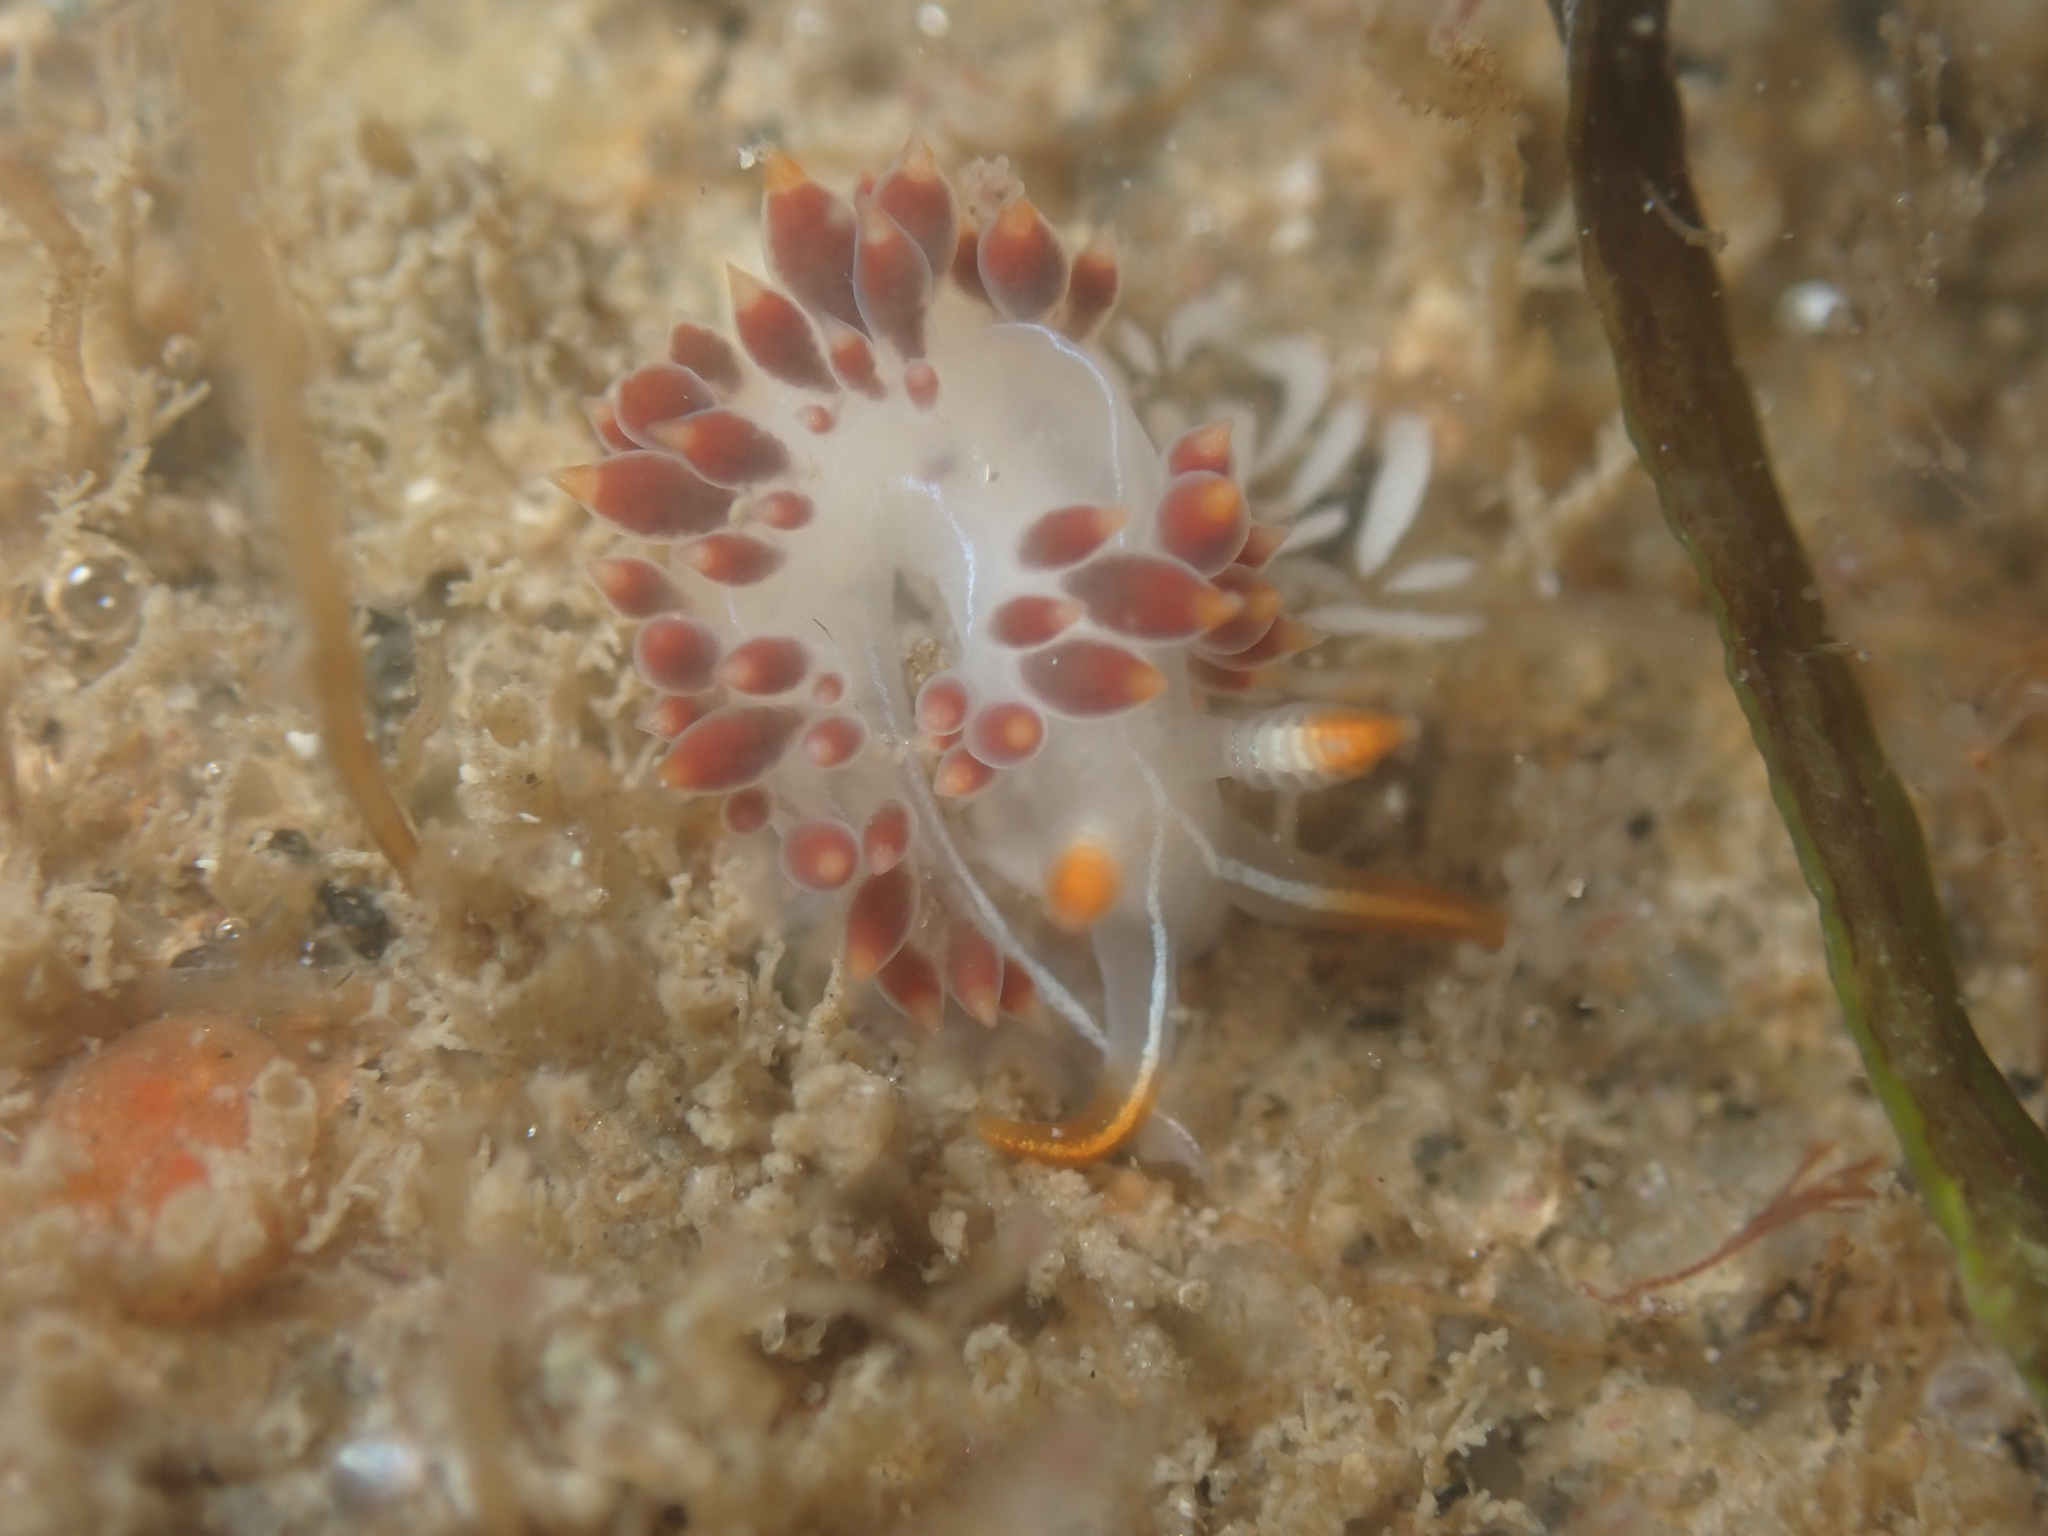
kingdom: Animalia
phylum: Mollusca
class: Gastropoda
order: Nudibranchia
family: Coryphellidae
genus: Coryphella
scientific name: Coryphella trilineata
